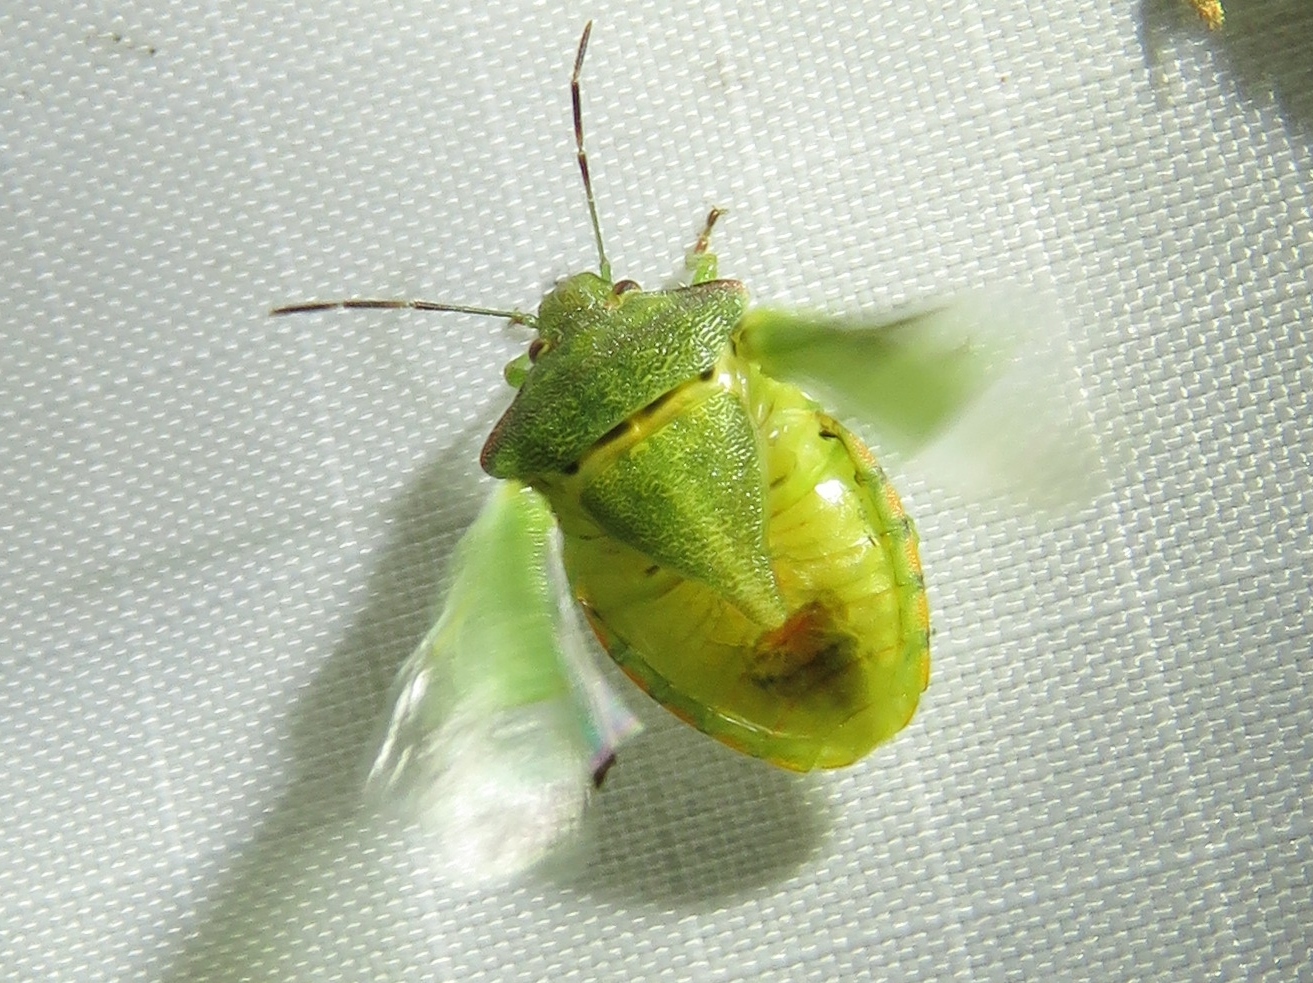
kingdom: Animalia
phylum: Arthropoda
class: Insecta
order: Hemiptera
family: Pentatomidae
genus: Thyanta
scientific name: Thyanta custator
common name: Stink bug
